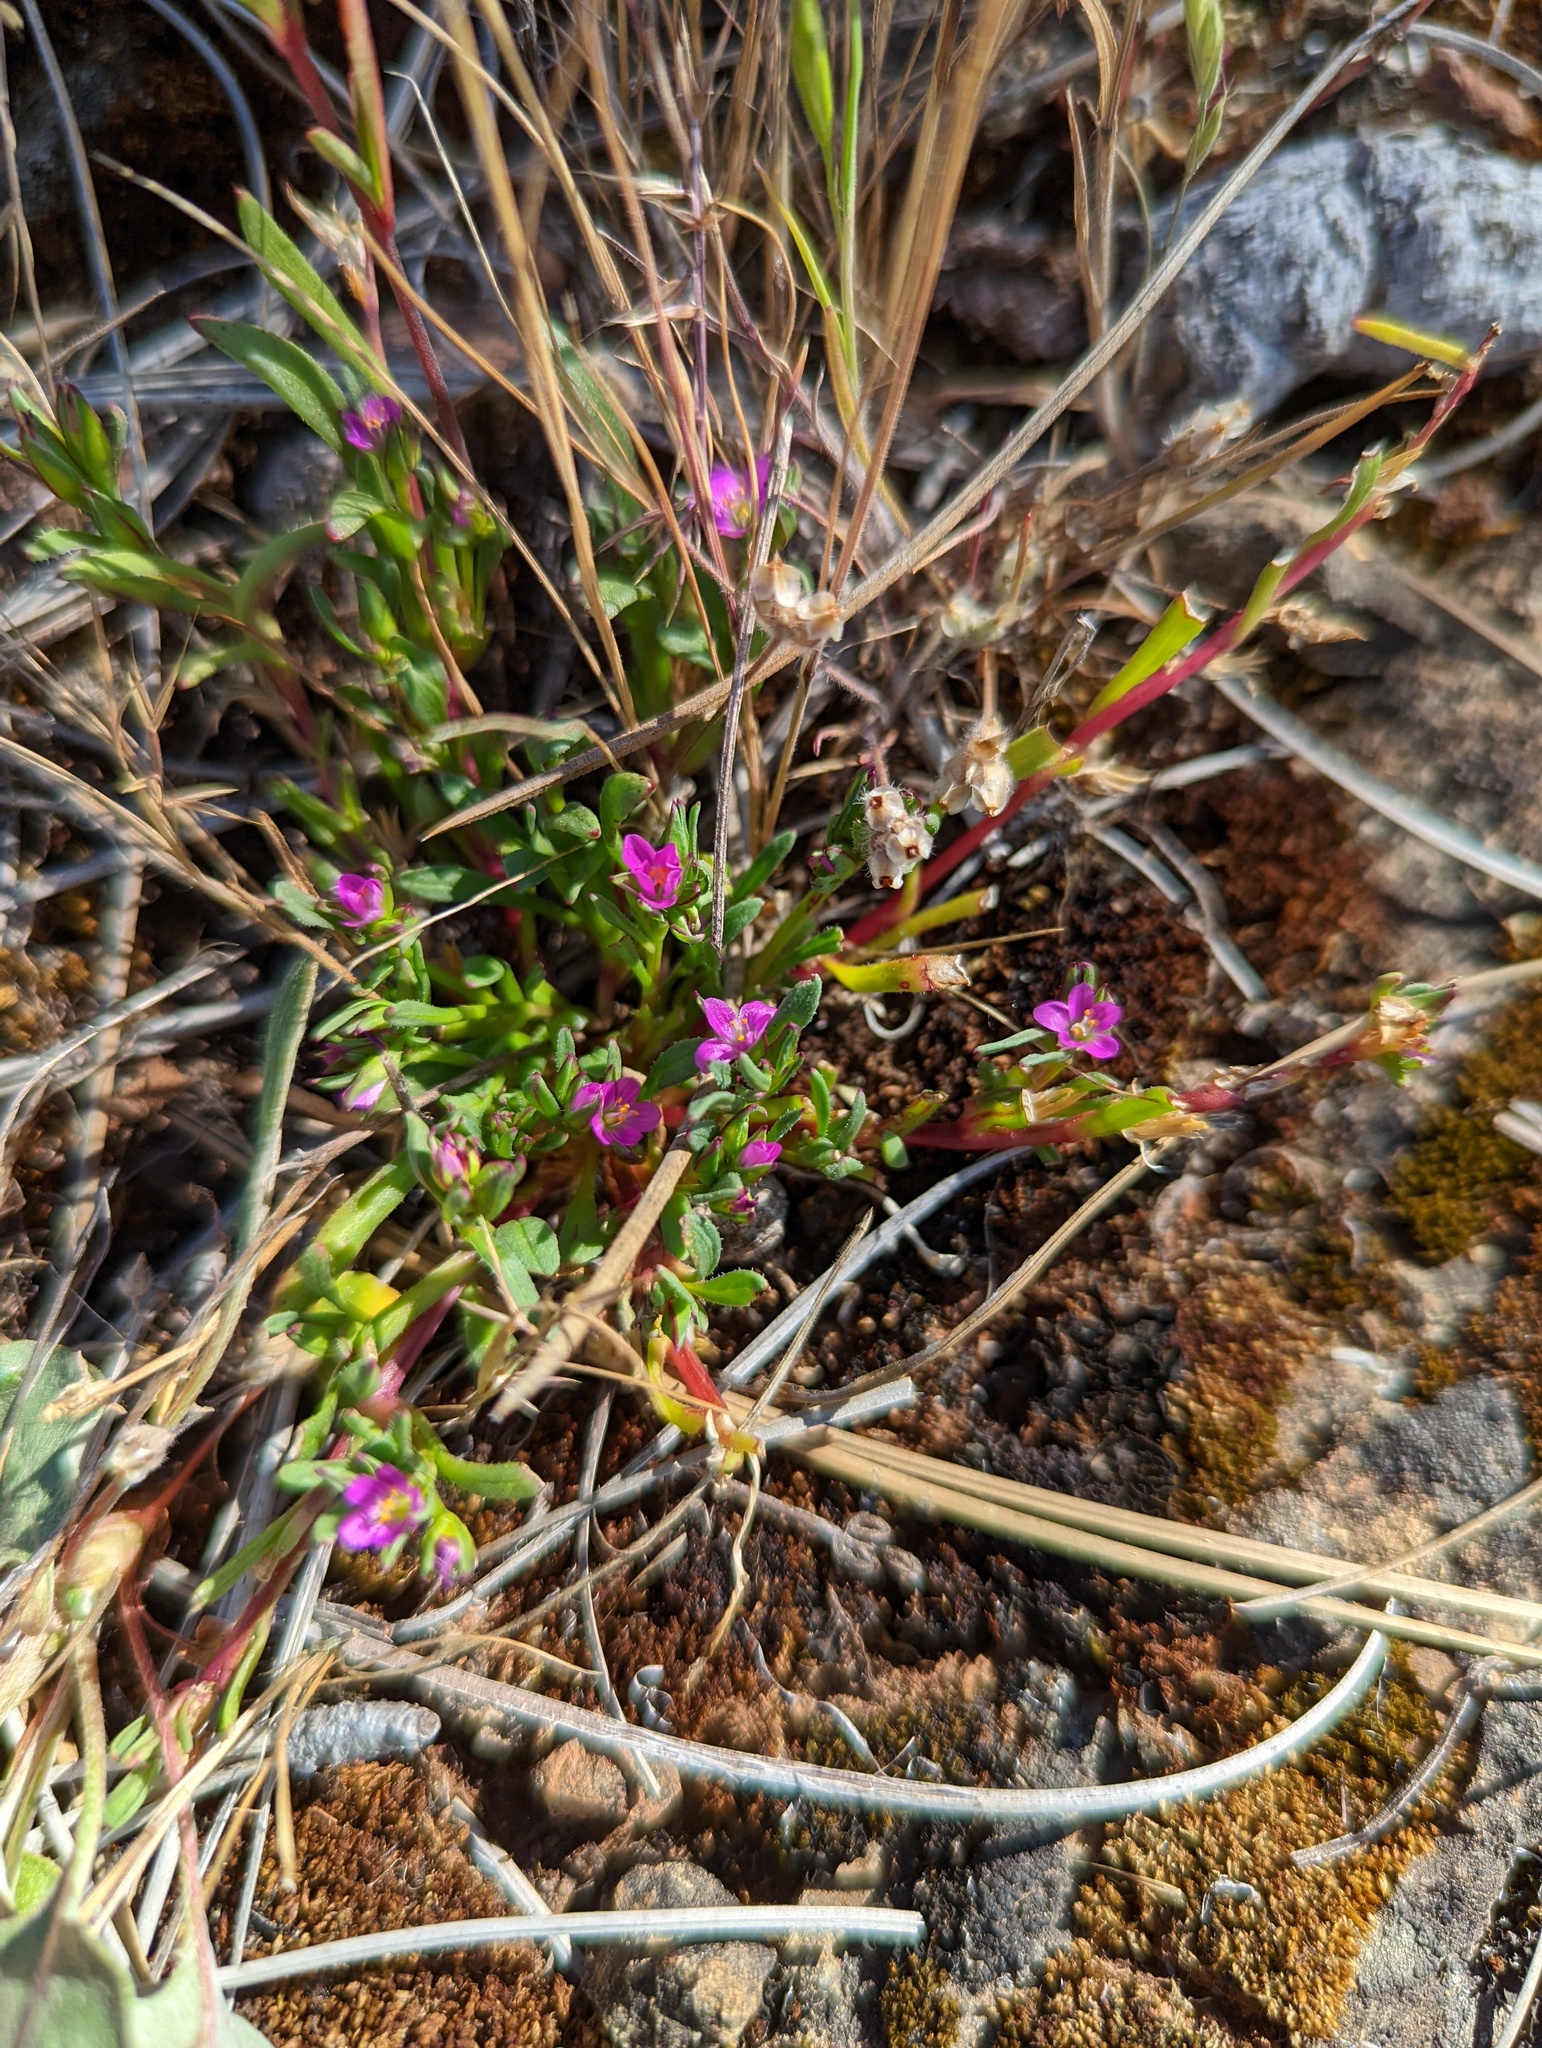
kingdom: Plantae
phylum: Tracheophyta
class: Magnoliopsida
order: Caryophyllales
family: Montiaceae
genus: Calandrinia
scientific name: Calandrinia menziesii
